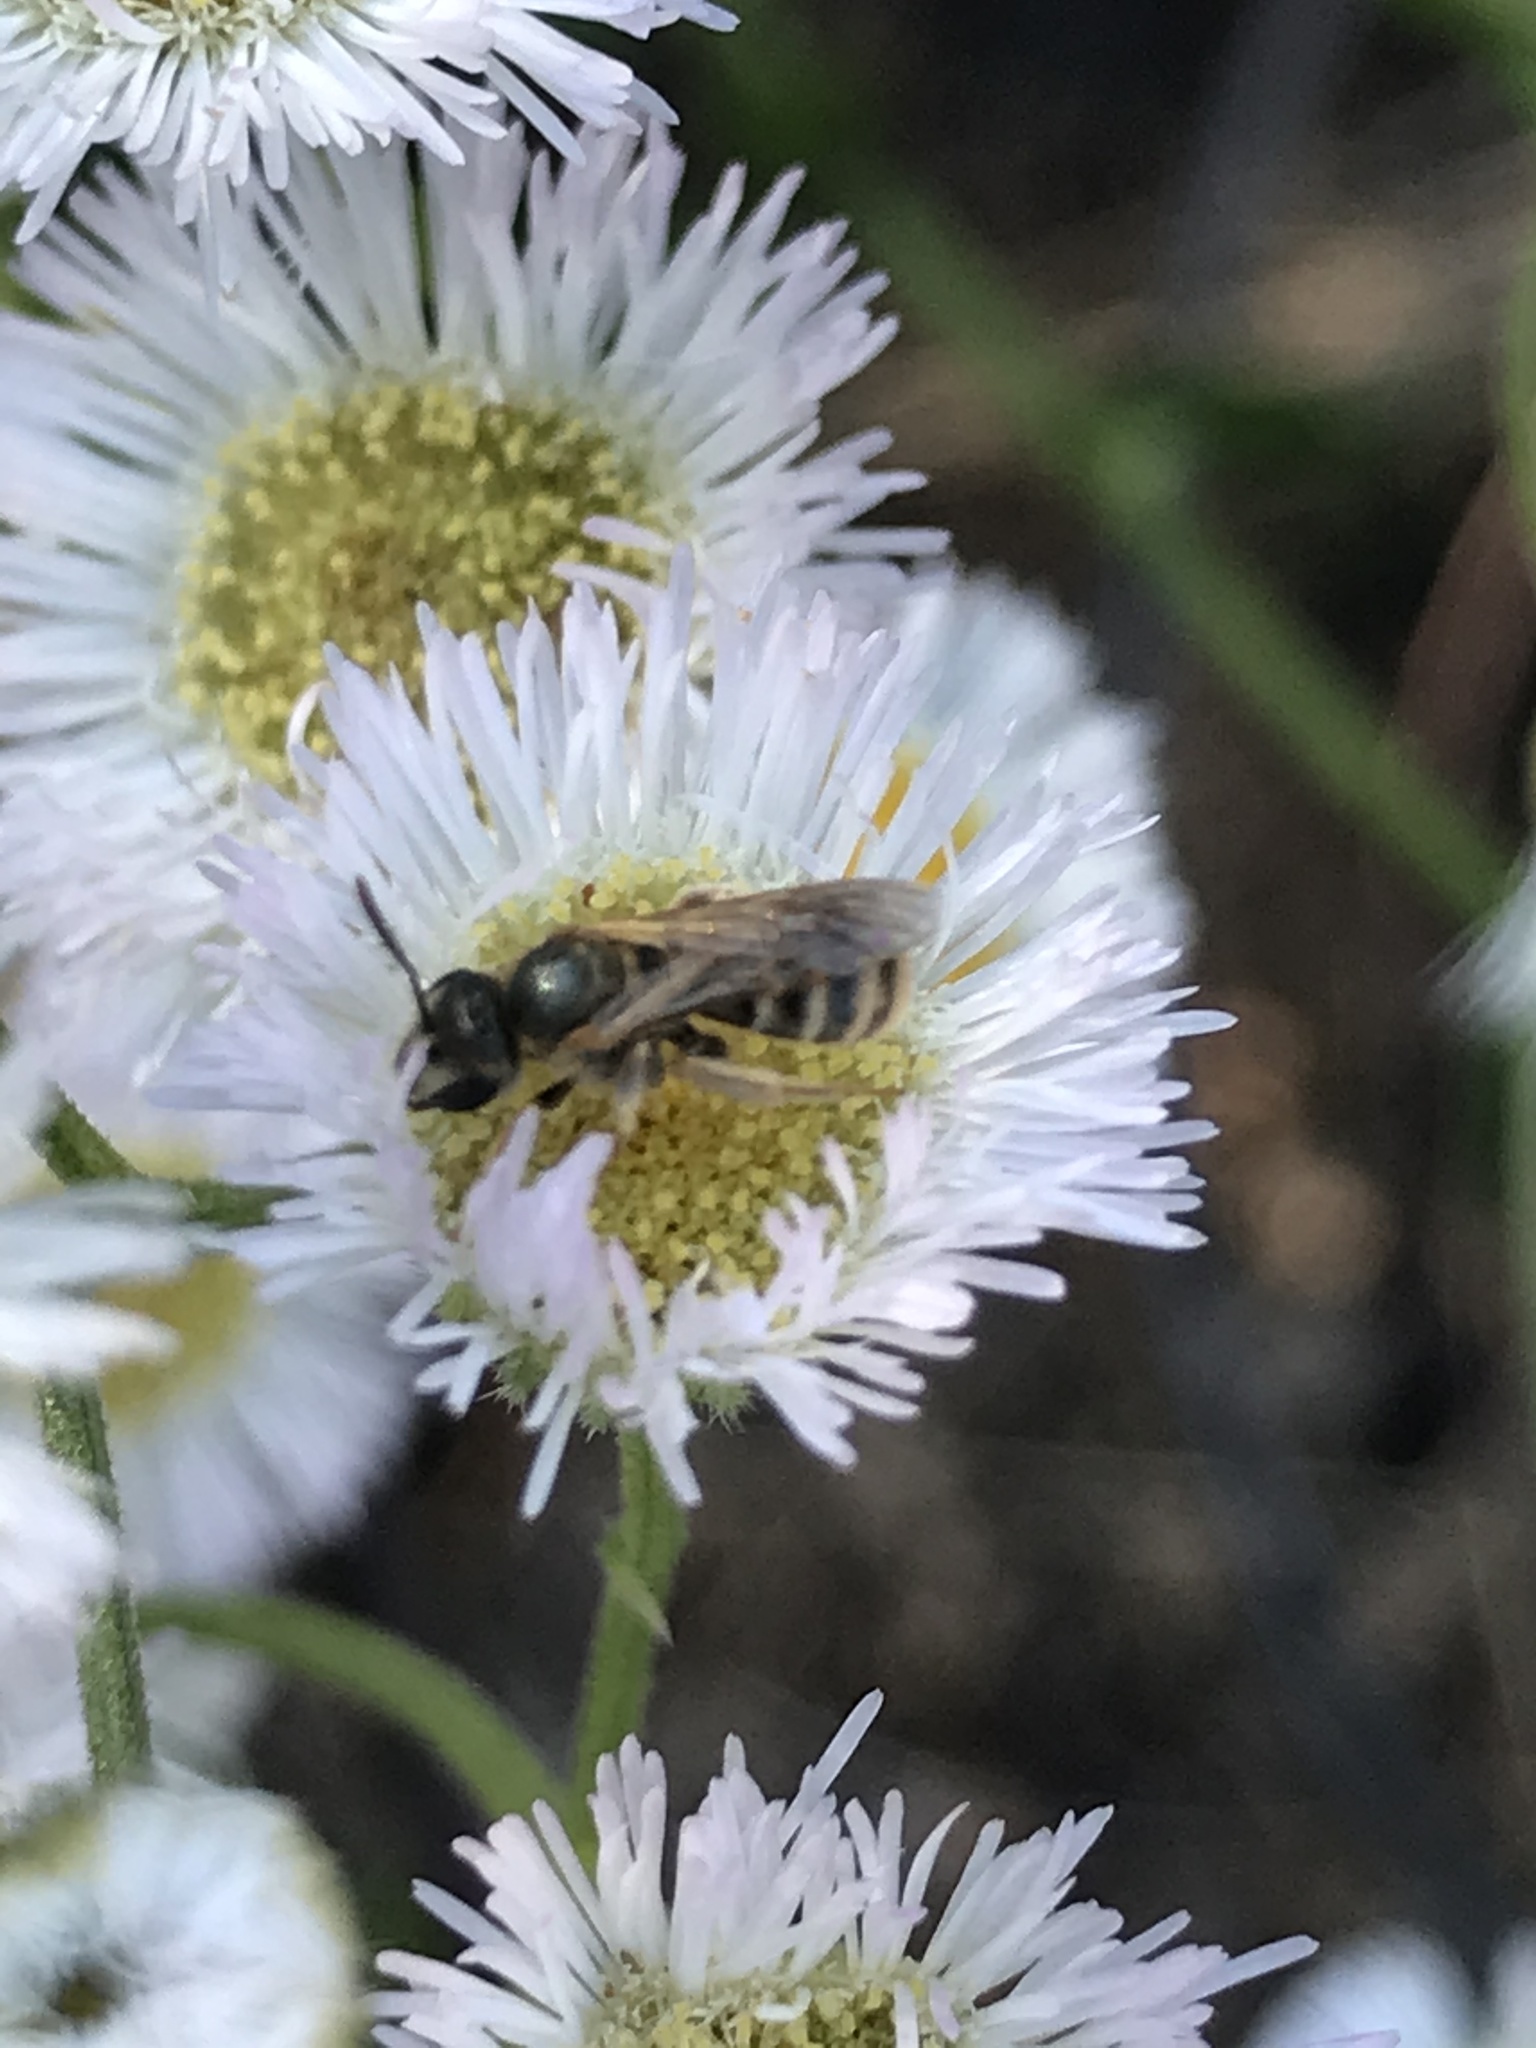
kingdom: Animalia
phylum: Arthropoda
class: Insecta
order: Hymenoptera
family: Halictidae
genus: Halictus
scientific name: Halictus confusus
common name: Southern bronze furrow bee
